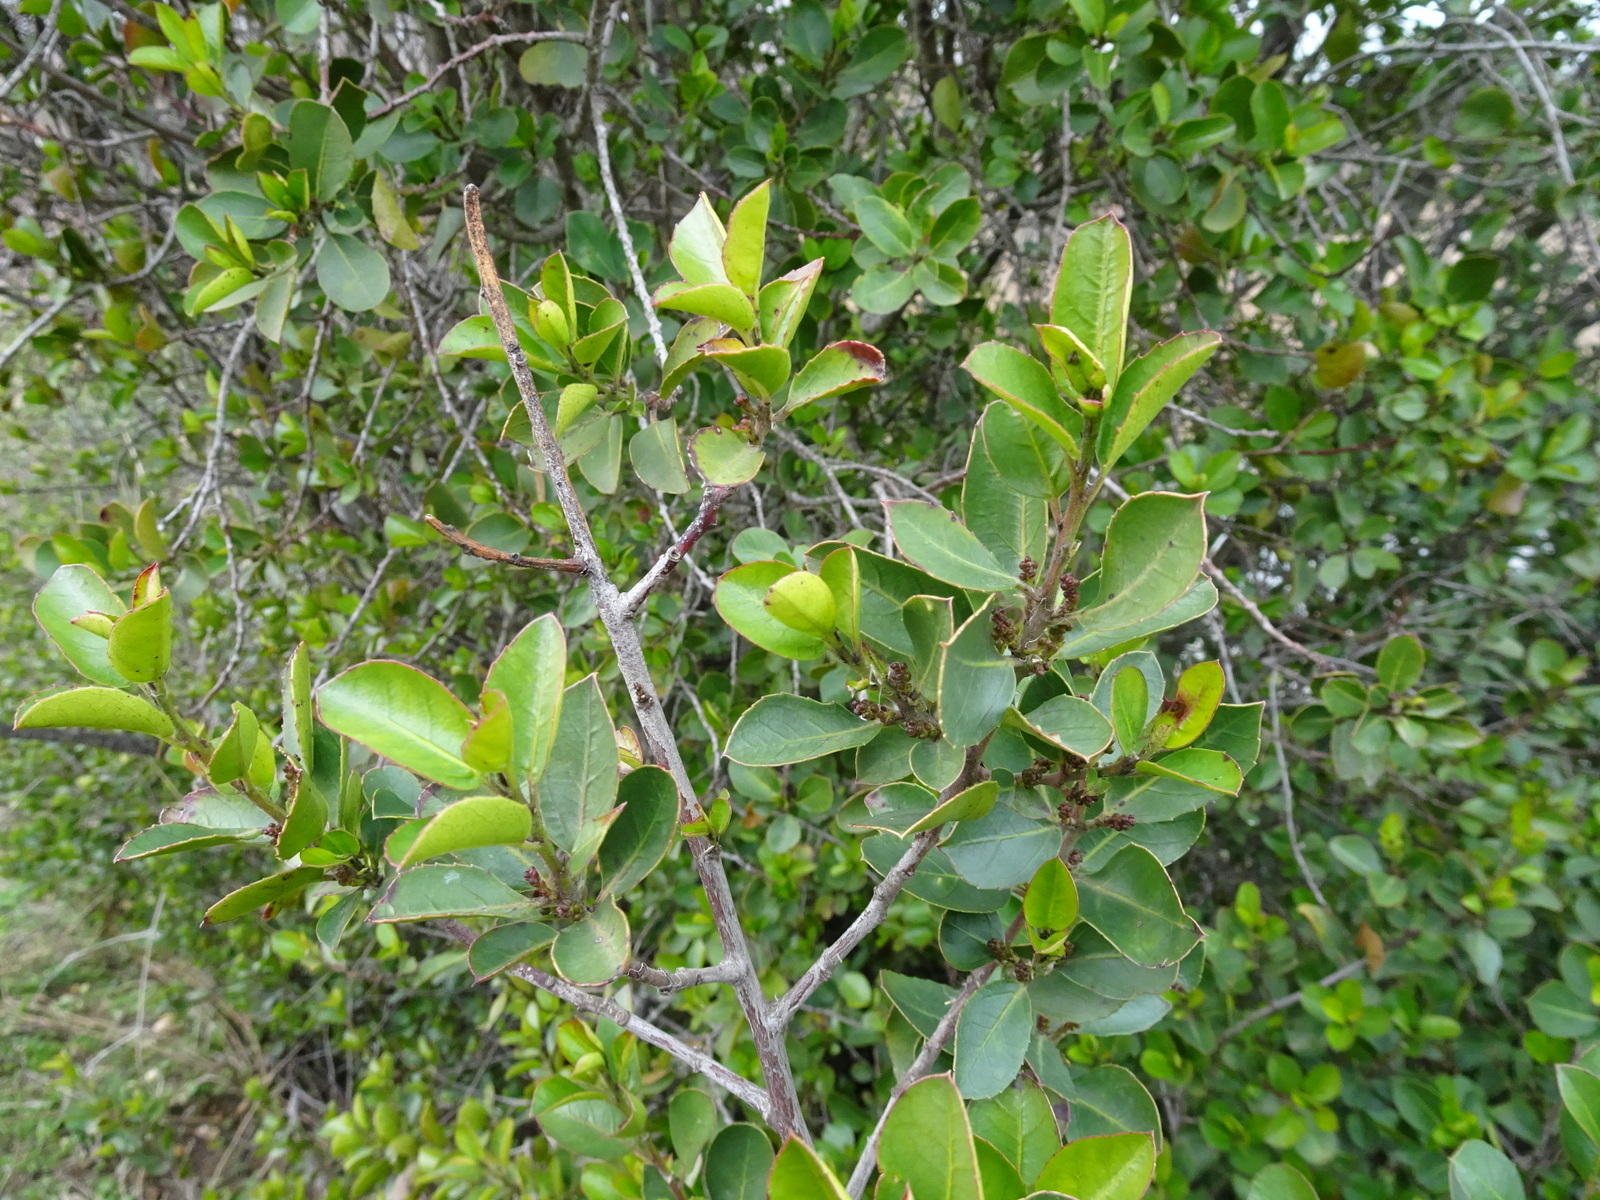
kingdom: Plantae
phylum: Tracheophyta
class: Magnoliopsida
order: Rosales
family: Rhamnaceae
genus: Rhamnus
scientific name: Rhamnus alaternus
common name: Mediterranean buckthorn
